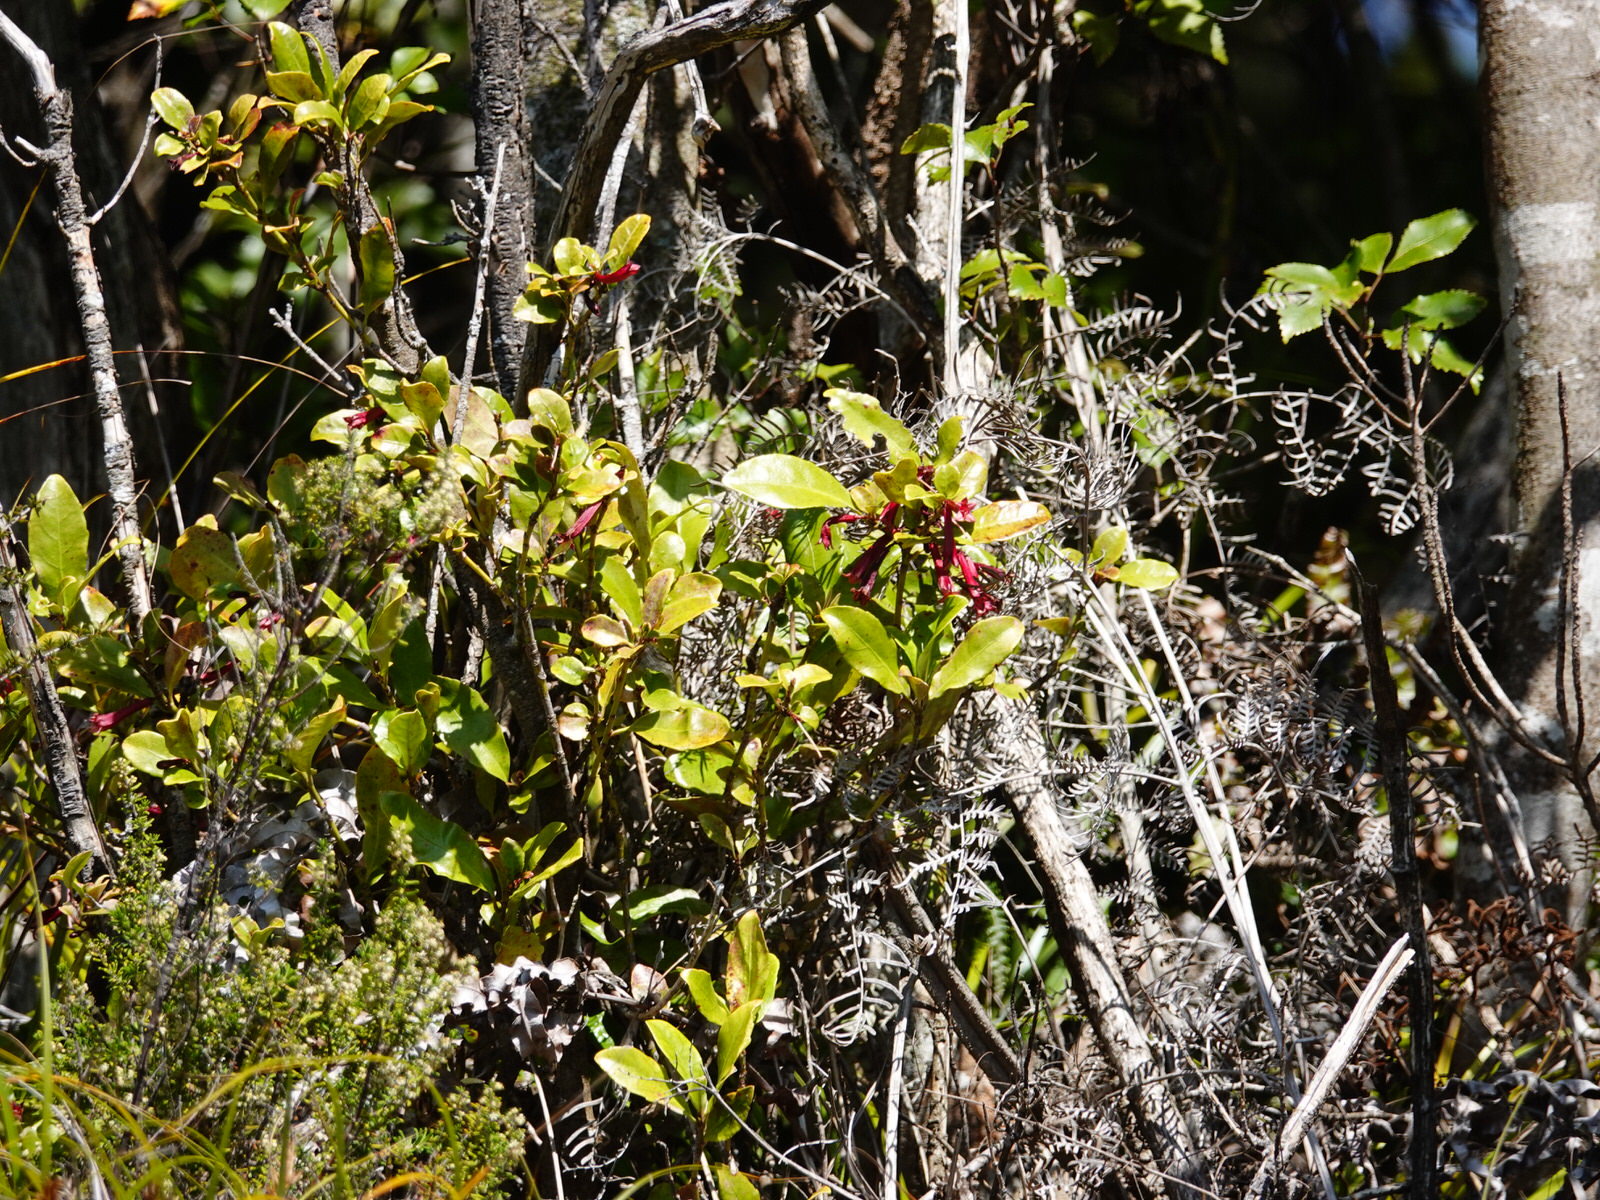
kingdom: Plantae
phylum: Tracheophyta
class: Magnoliopsida
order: Asterales
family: Alseuosmiaceae
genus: Alseuosmia
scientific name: Alseuosmia macrophylla
